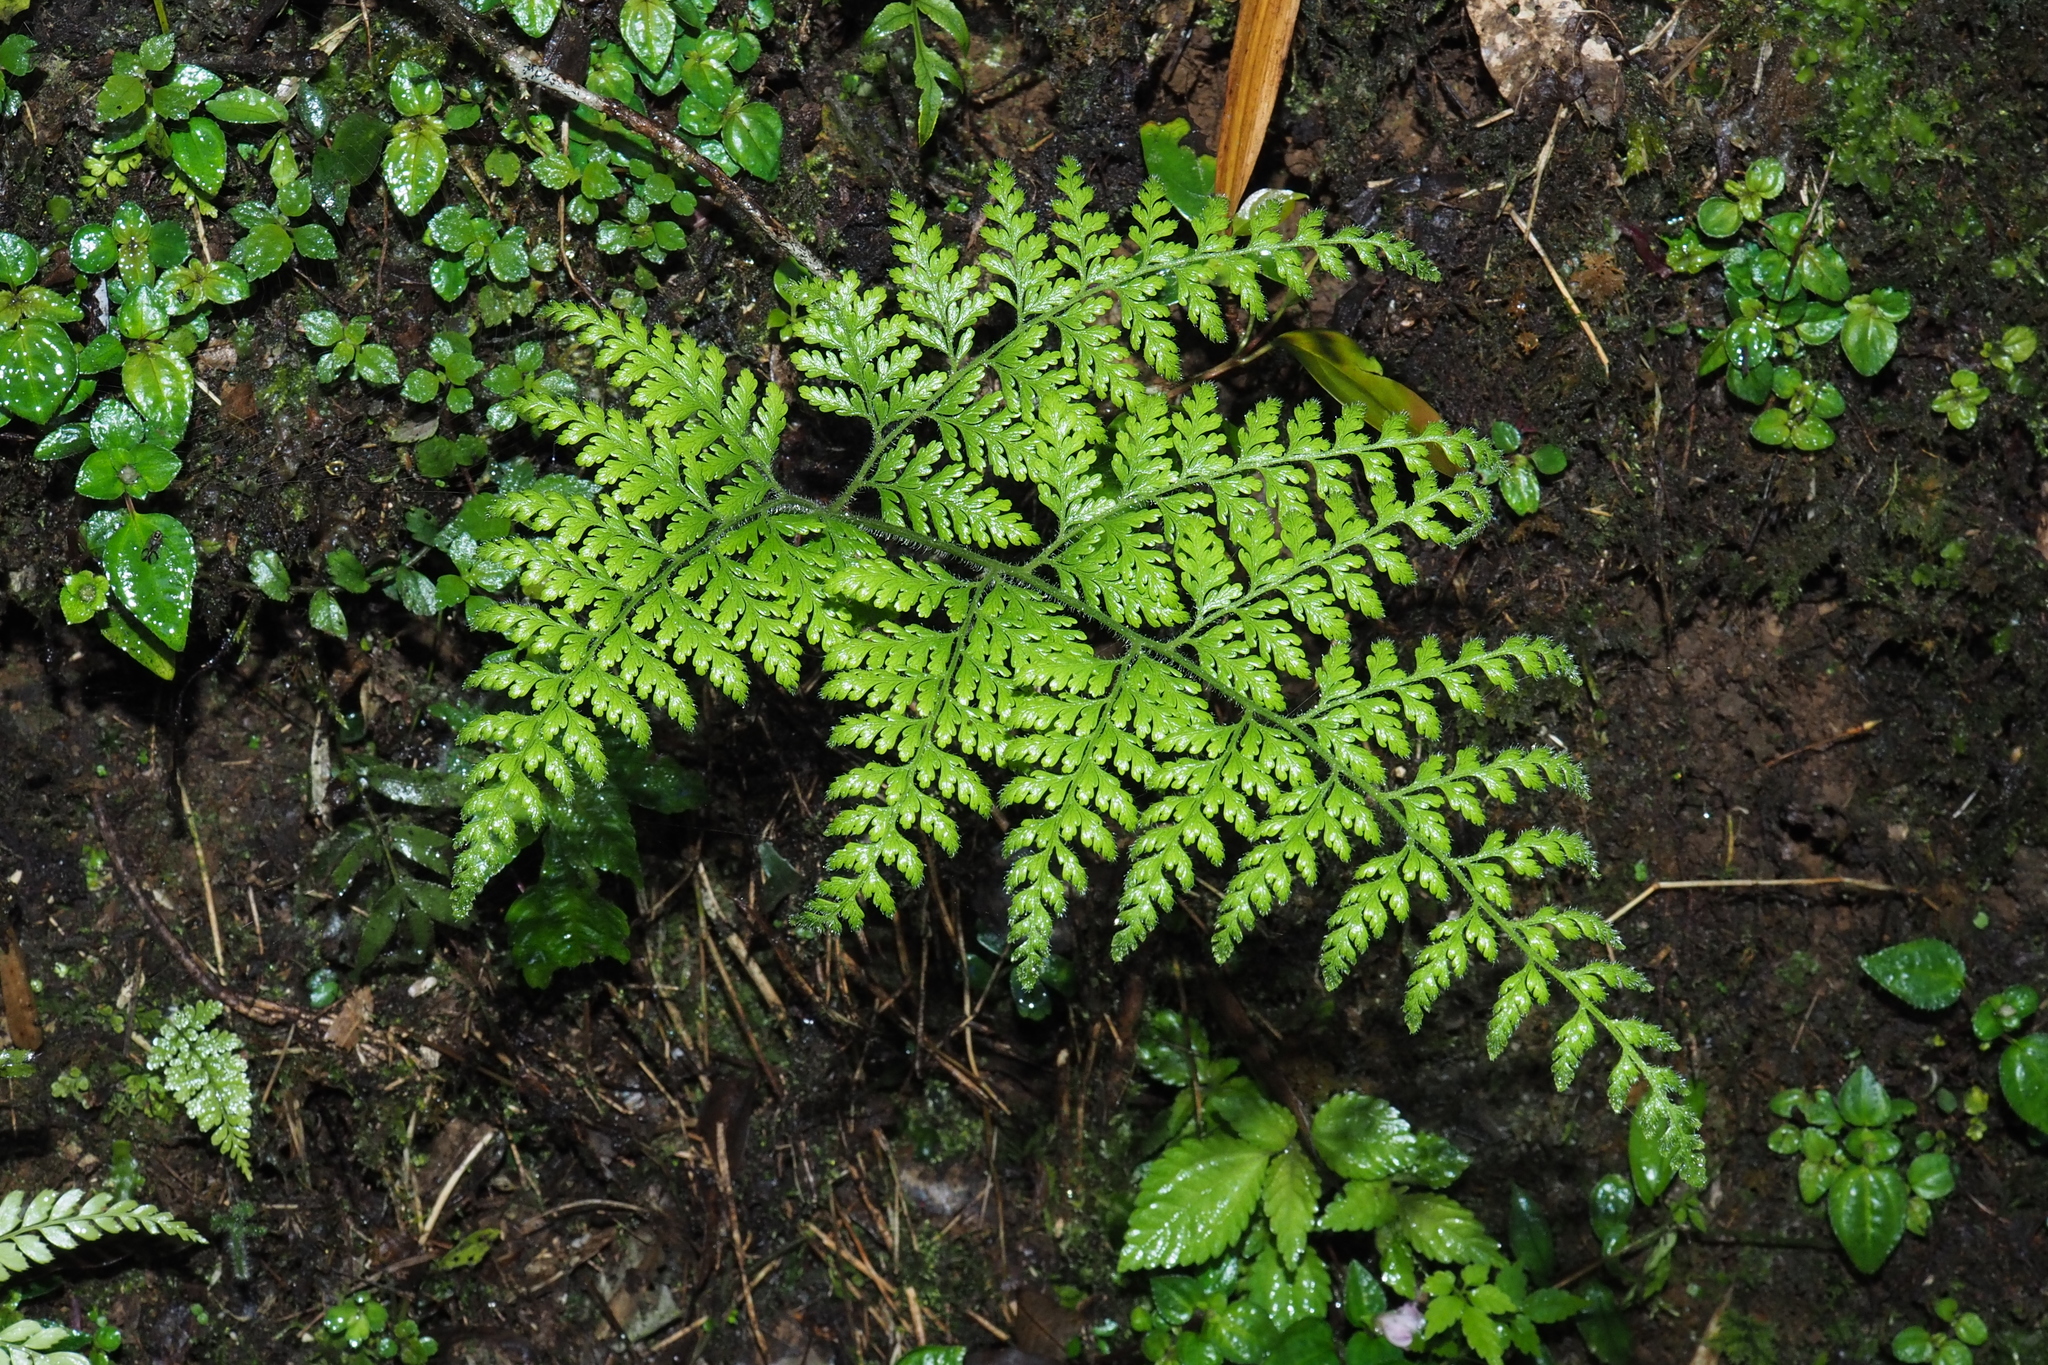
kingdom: Plantae
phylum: Tracheophyta
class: Polypodiopsida
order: Polypodiales
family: Dennstaedtiaceae
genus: Sitobolium
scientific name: Sitobolium zeylanicum
